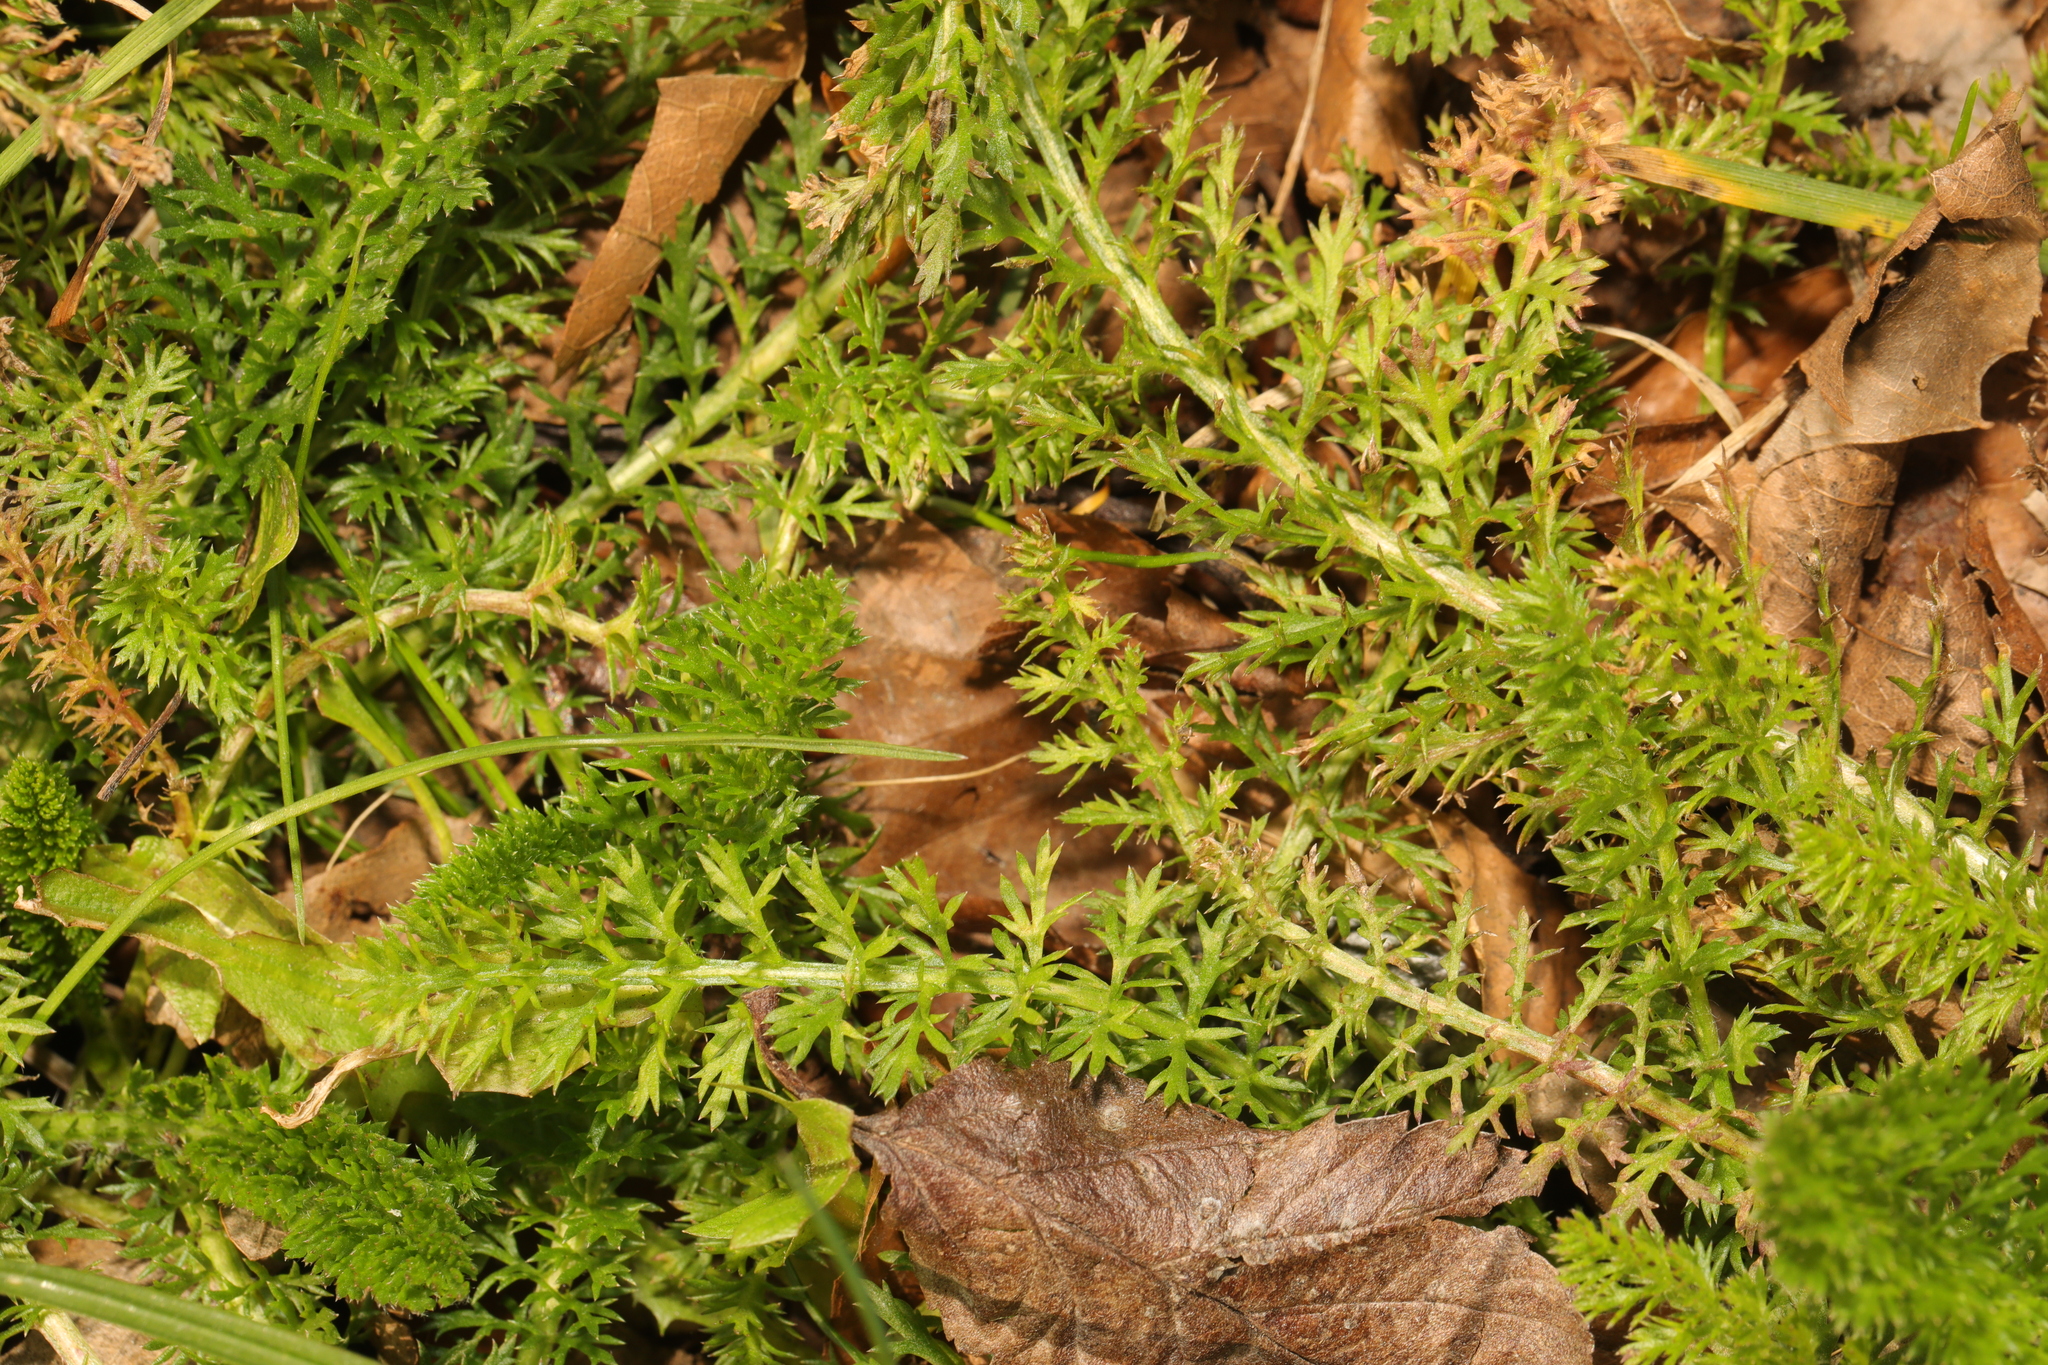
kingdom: Plantae
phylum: Tracheophyta
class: Magnoliopsida
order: Asterales
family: Asteraceae
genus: Achillea
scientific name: Achillea millefolium
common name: Yarrow
